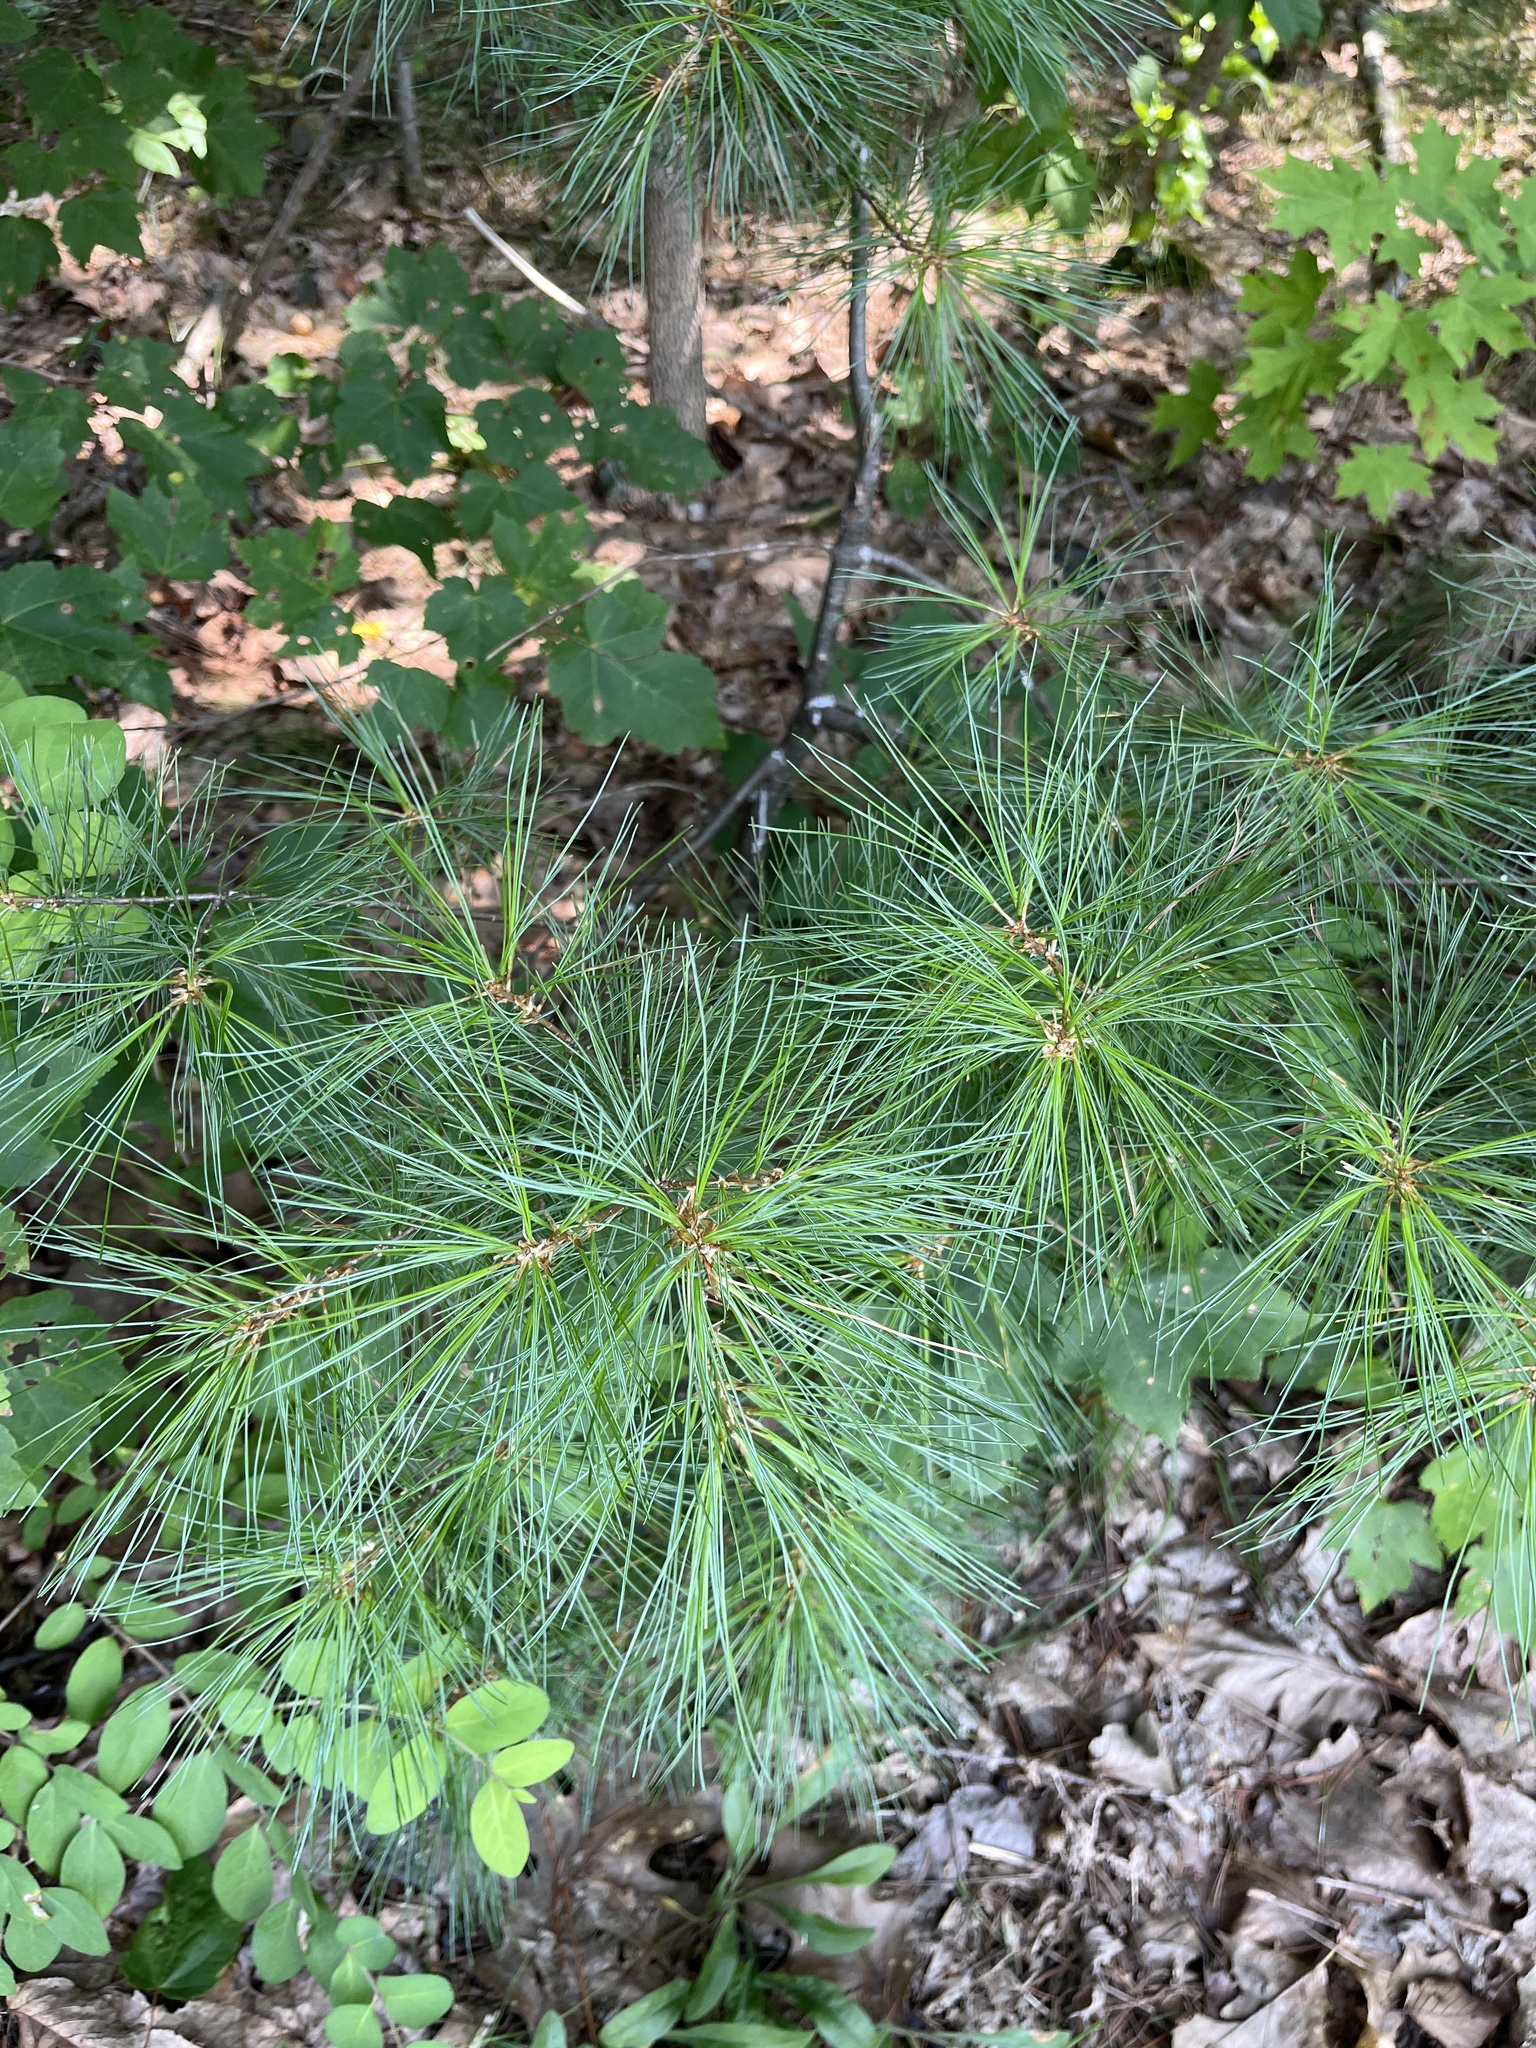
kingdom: Plantae
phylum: Tracheophyta
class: Pinopsida
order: Pinales
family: Pinaceae
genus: Pinus
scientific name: Pinus strobus
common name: Weymouth pine
